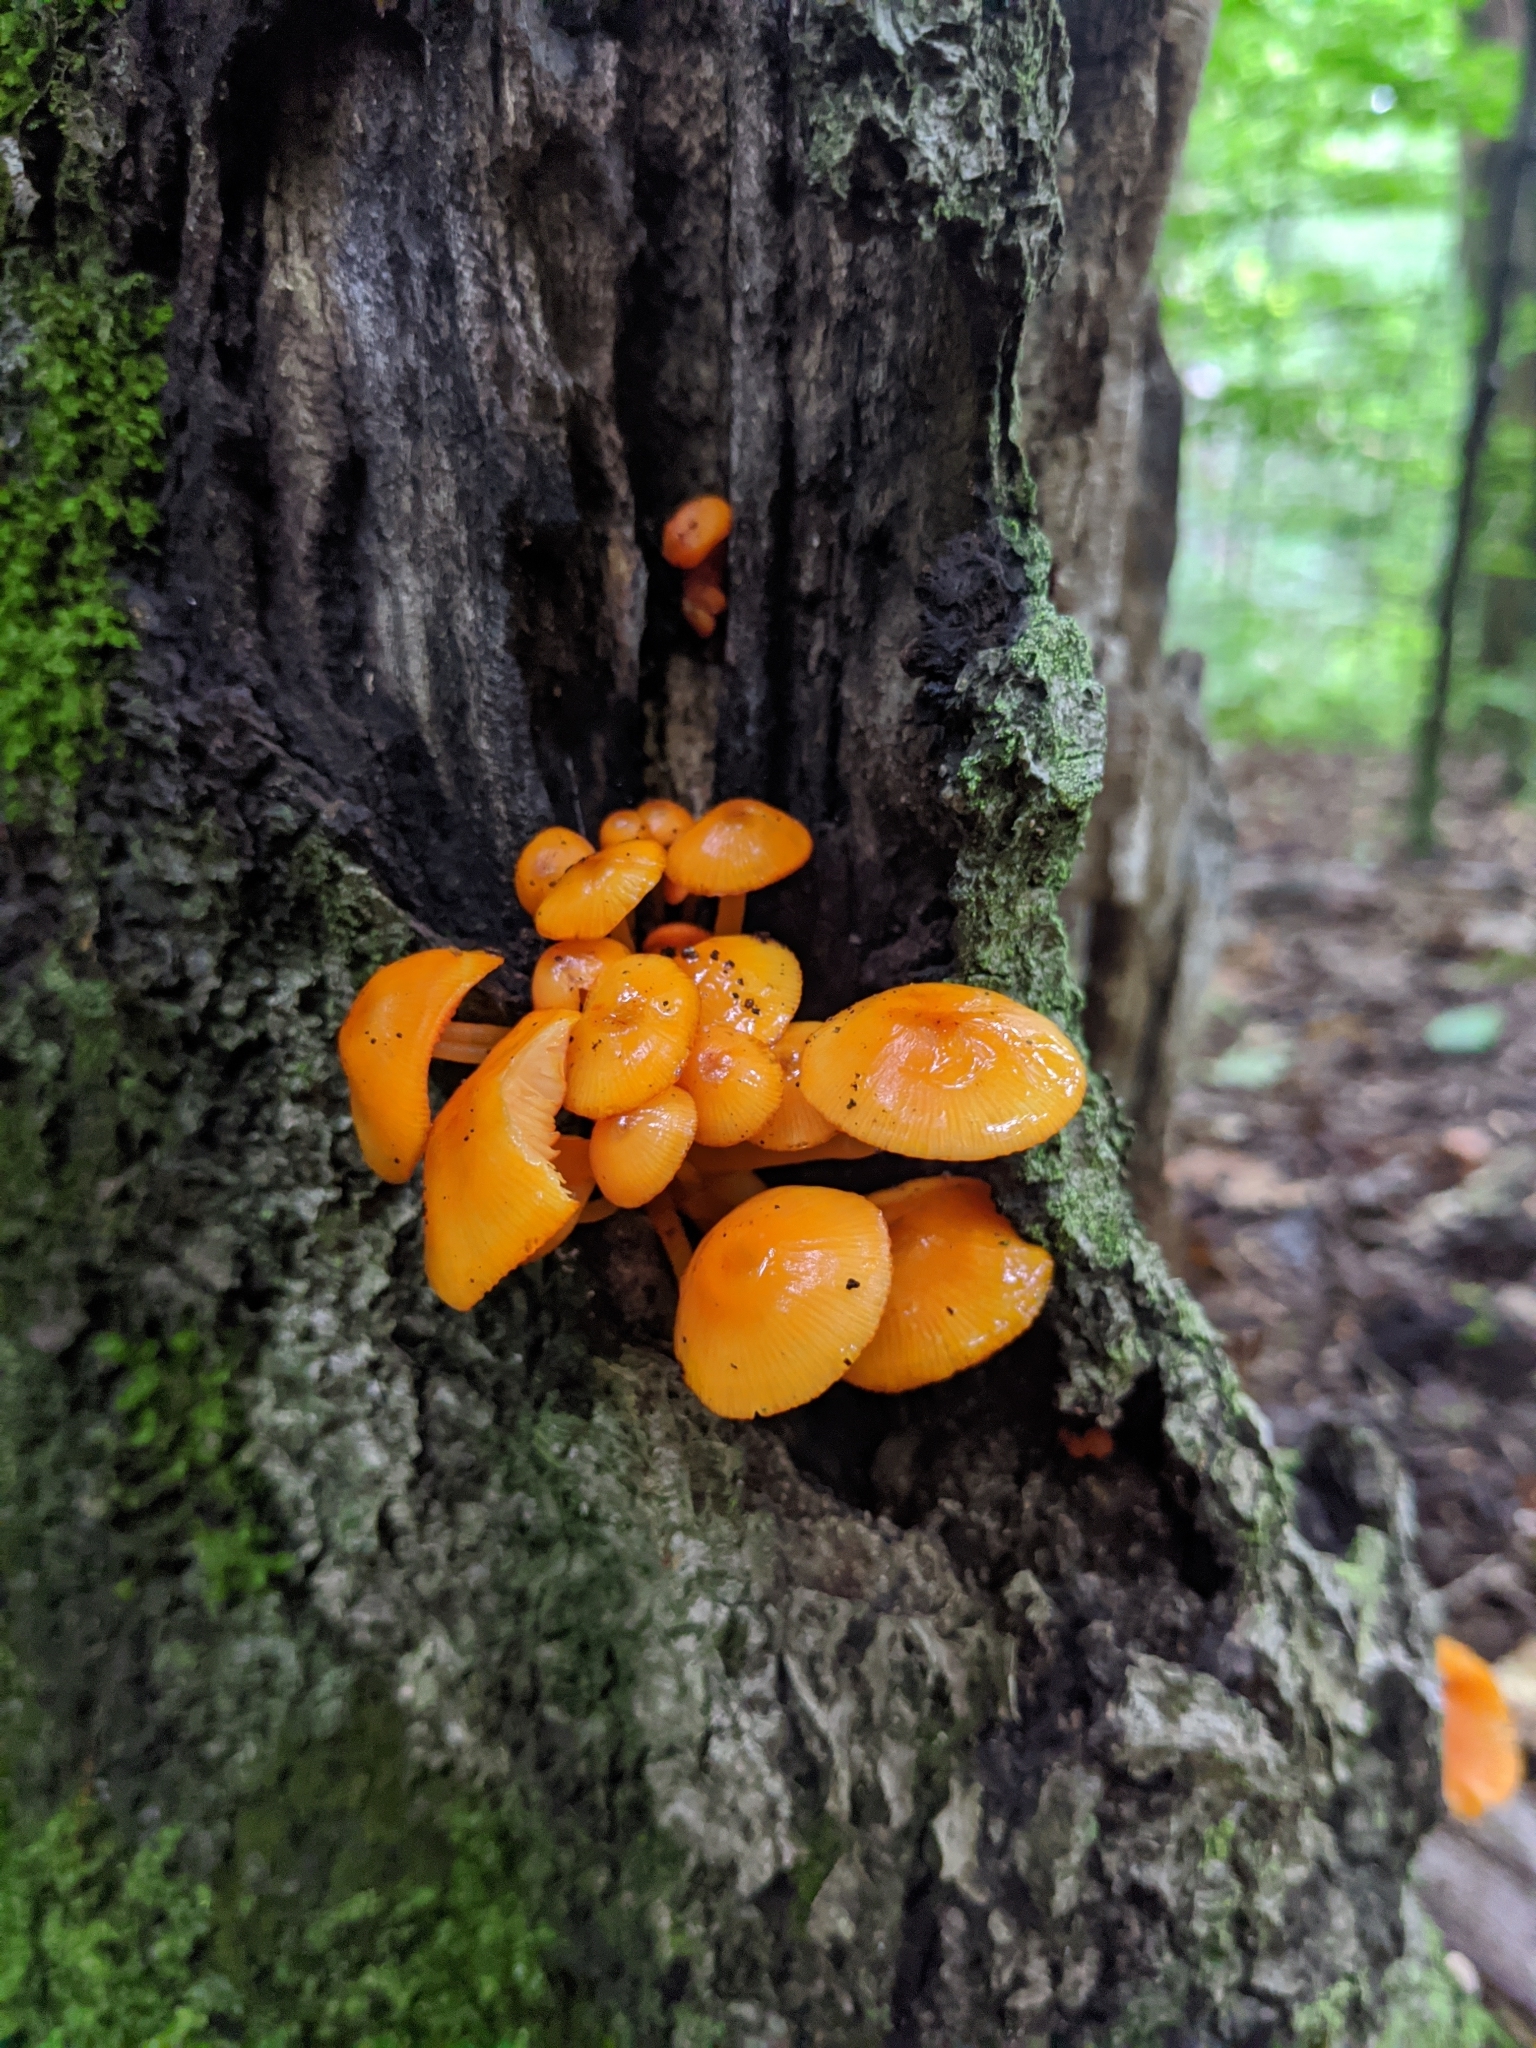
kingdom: Fungi
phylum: Basidiomycota
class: Agaricomycetes
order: Agaricales
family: Mycenaceae
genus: Mycena
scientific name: Mycena leaiana
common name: Orange mycena
